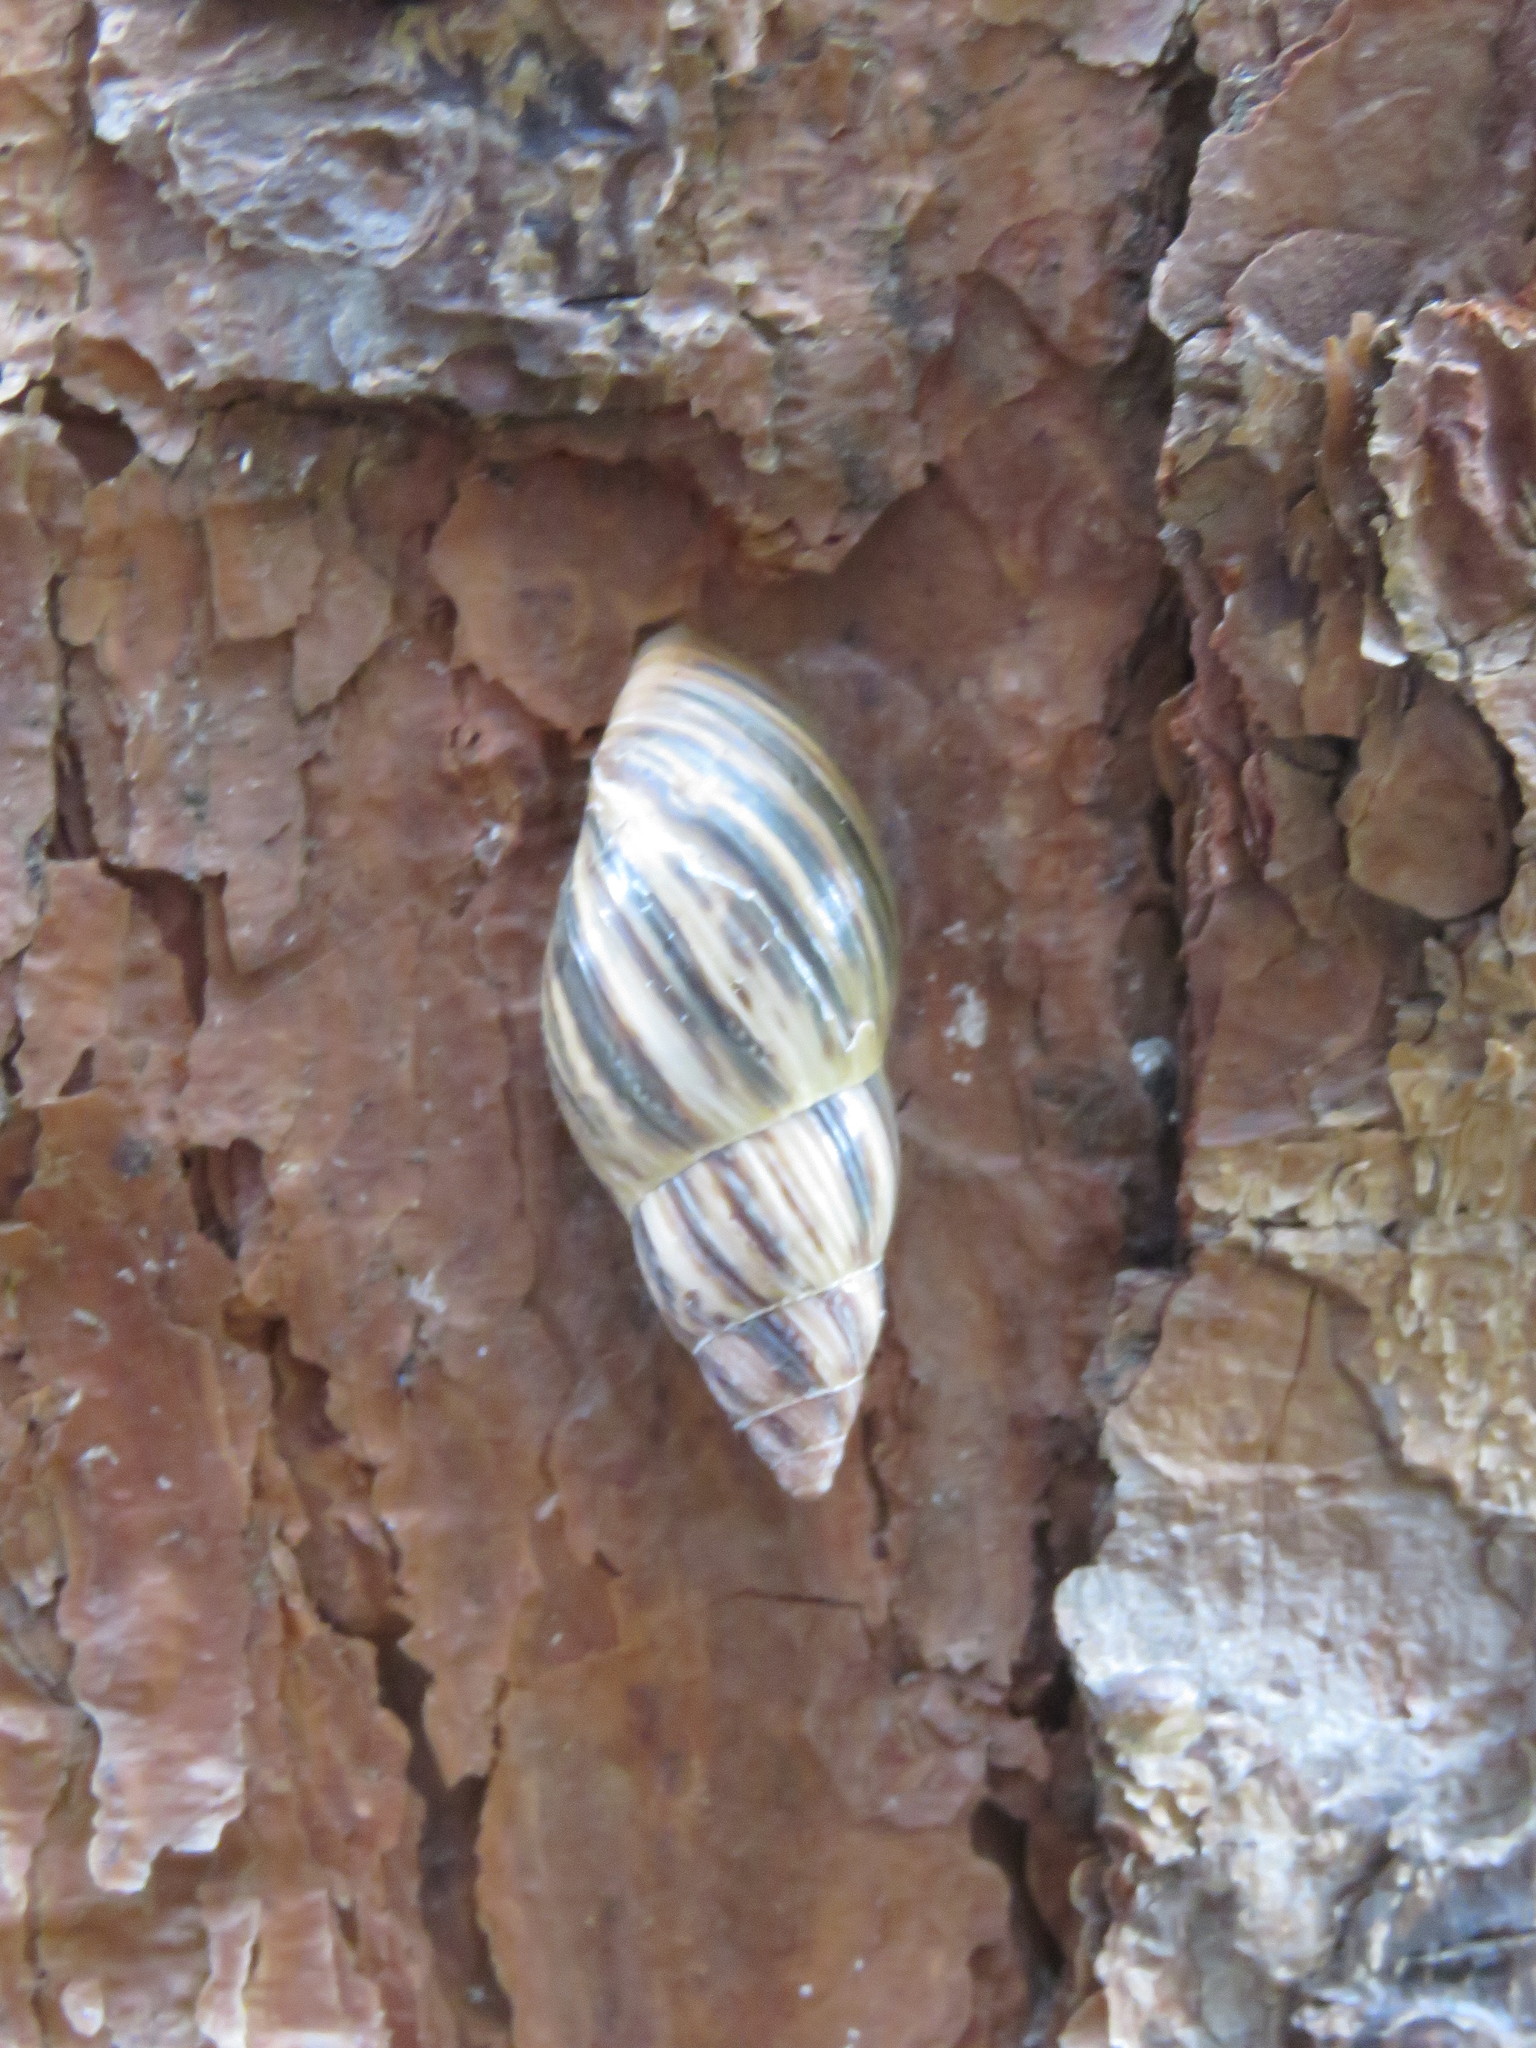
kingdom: Animalia
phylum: Mollusca
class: Gastropoda
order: Stylommatophora
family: Bulimulidae
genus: Drymaeus
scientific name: Drymaeus convexus
